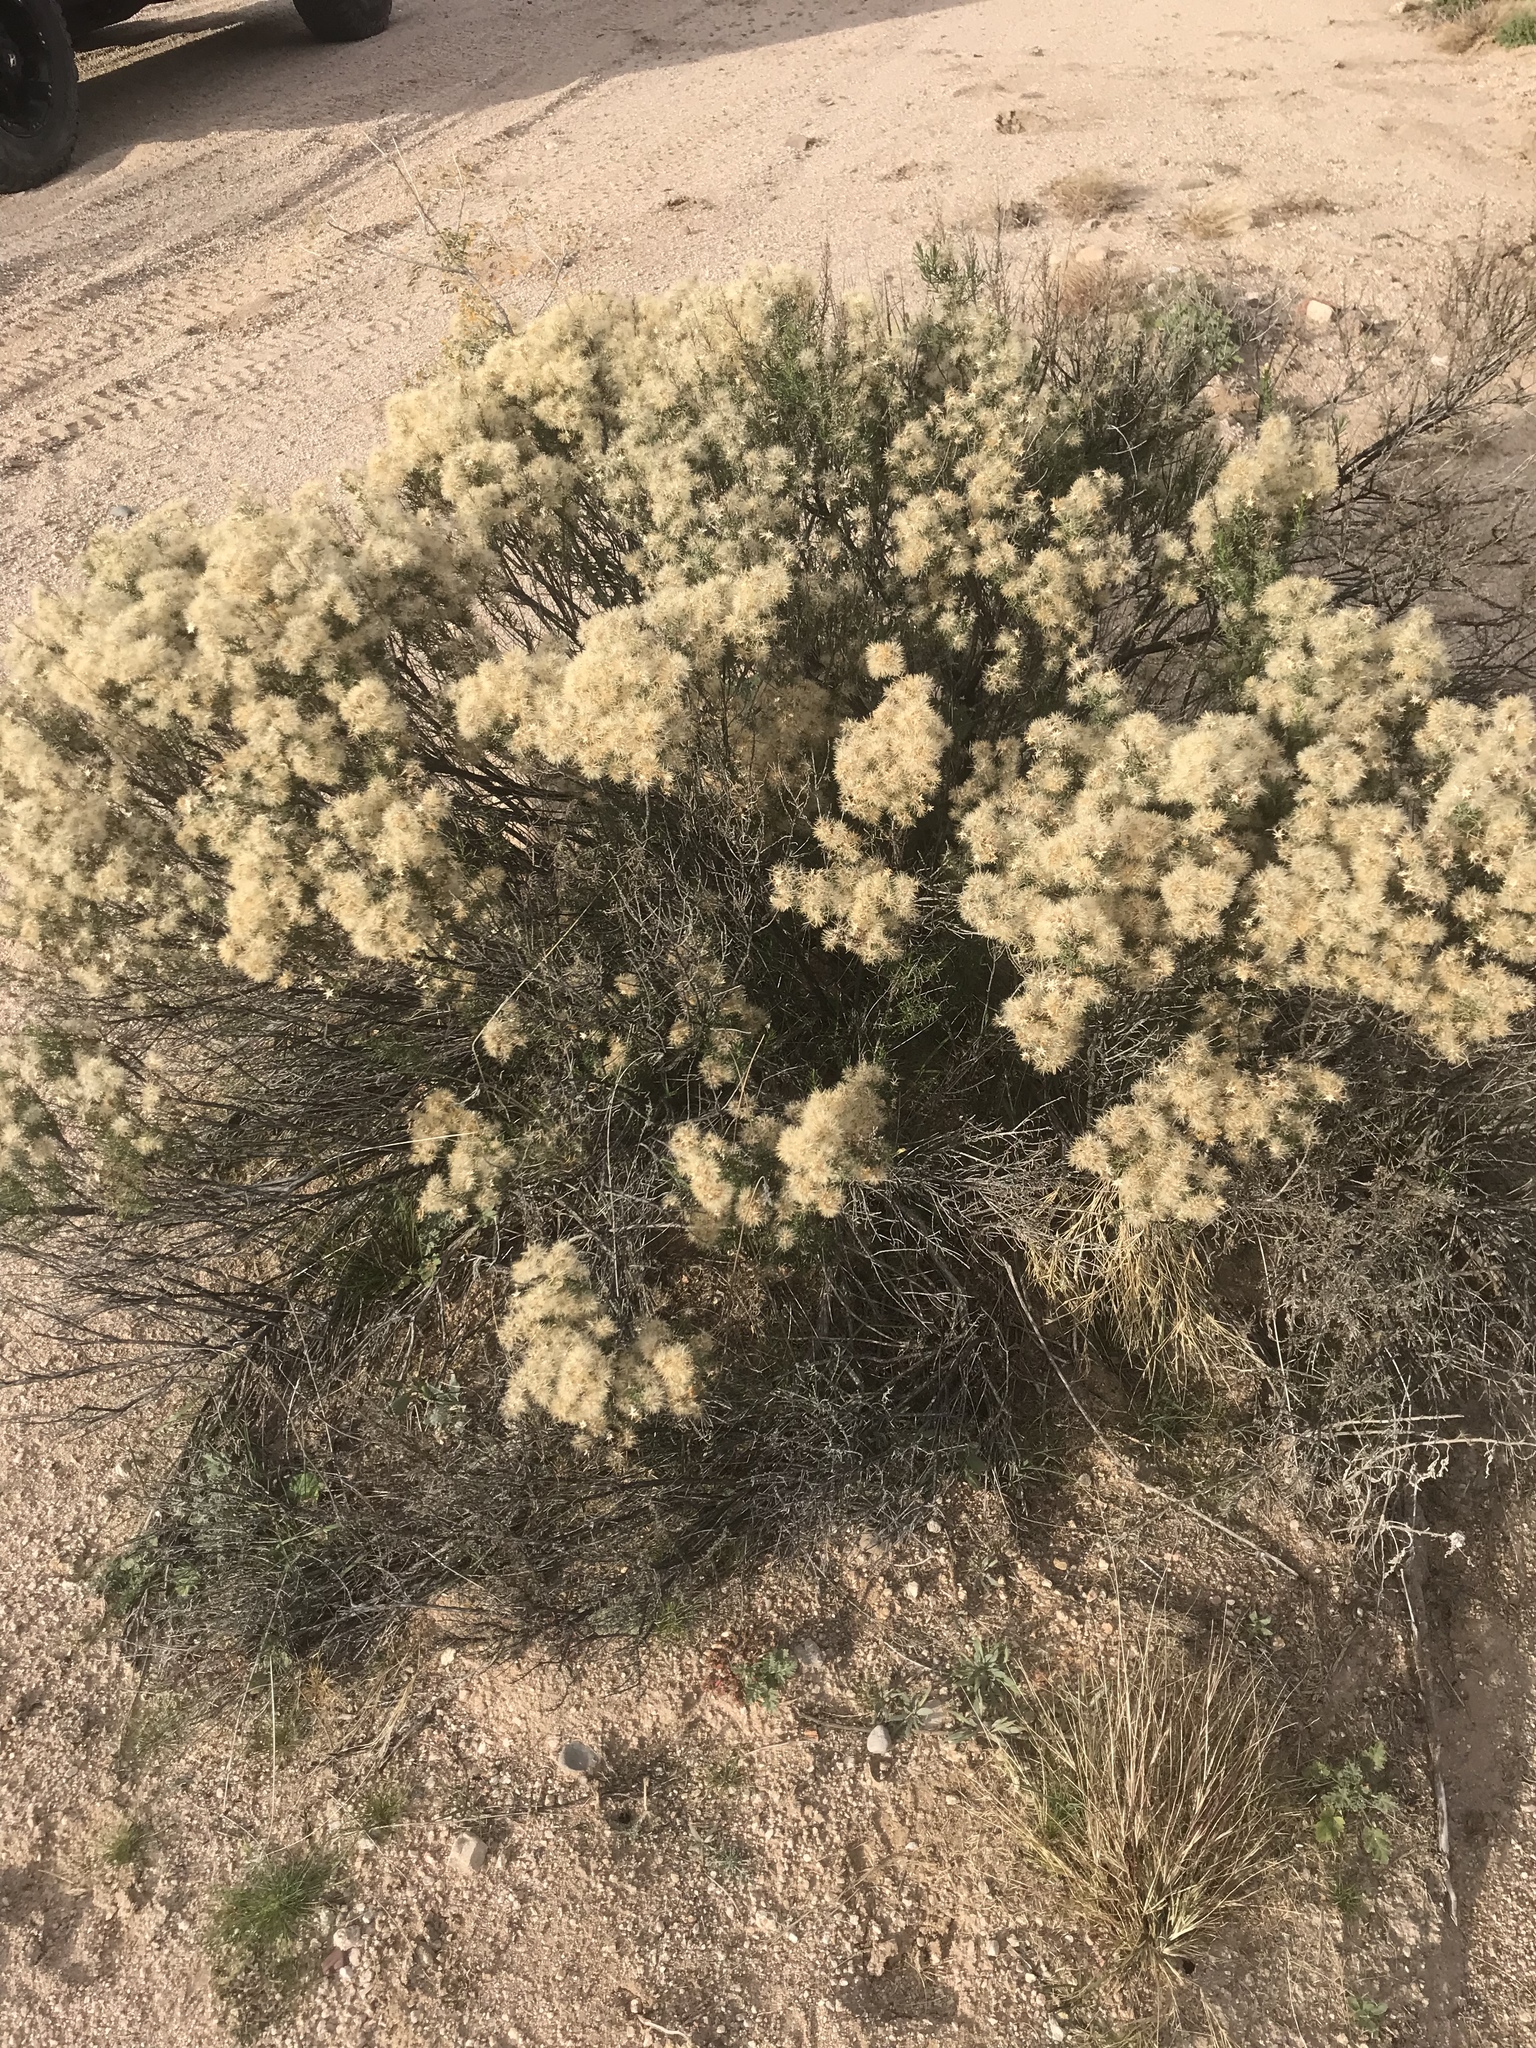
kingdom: Plantae
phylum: Tracheophyta
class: Magnoliopsida
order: Asterales
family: Asteraceae
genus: Ericameria
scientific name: Ericameria laricifolia
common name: Turpentine-bush
